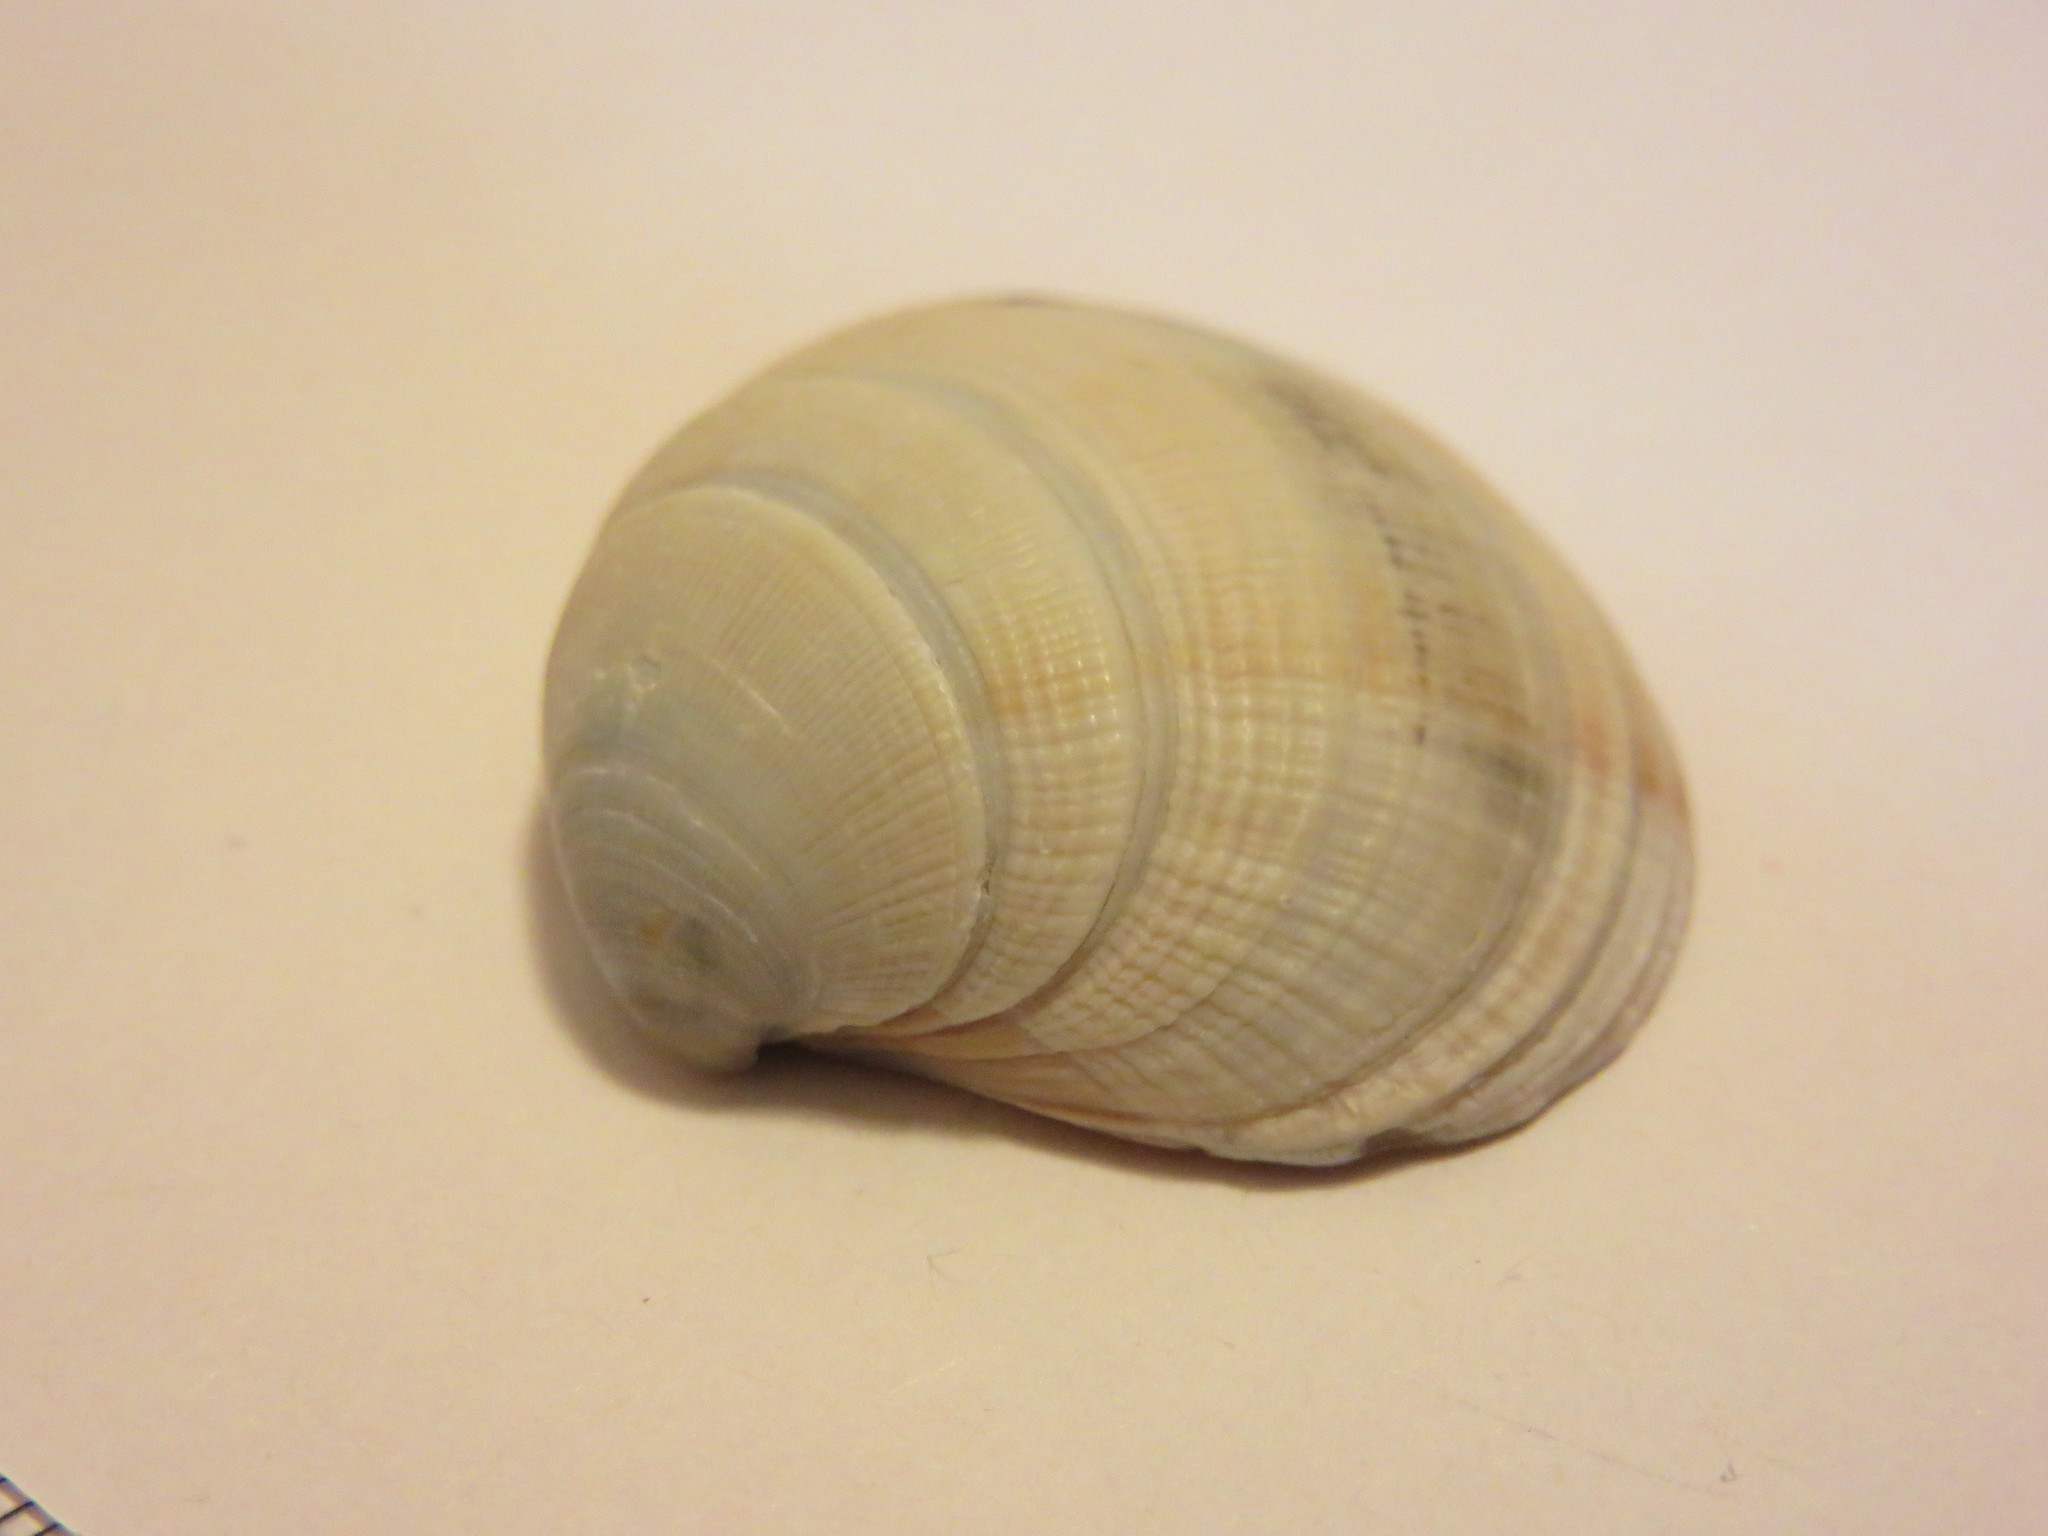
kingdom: Animalia
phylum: Mollusca
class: Bivalvia
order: Venerida
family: Veneridae
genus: Saxidomus
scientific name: Saxidomus purpurata
